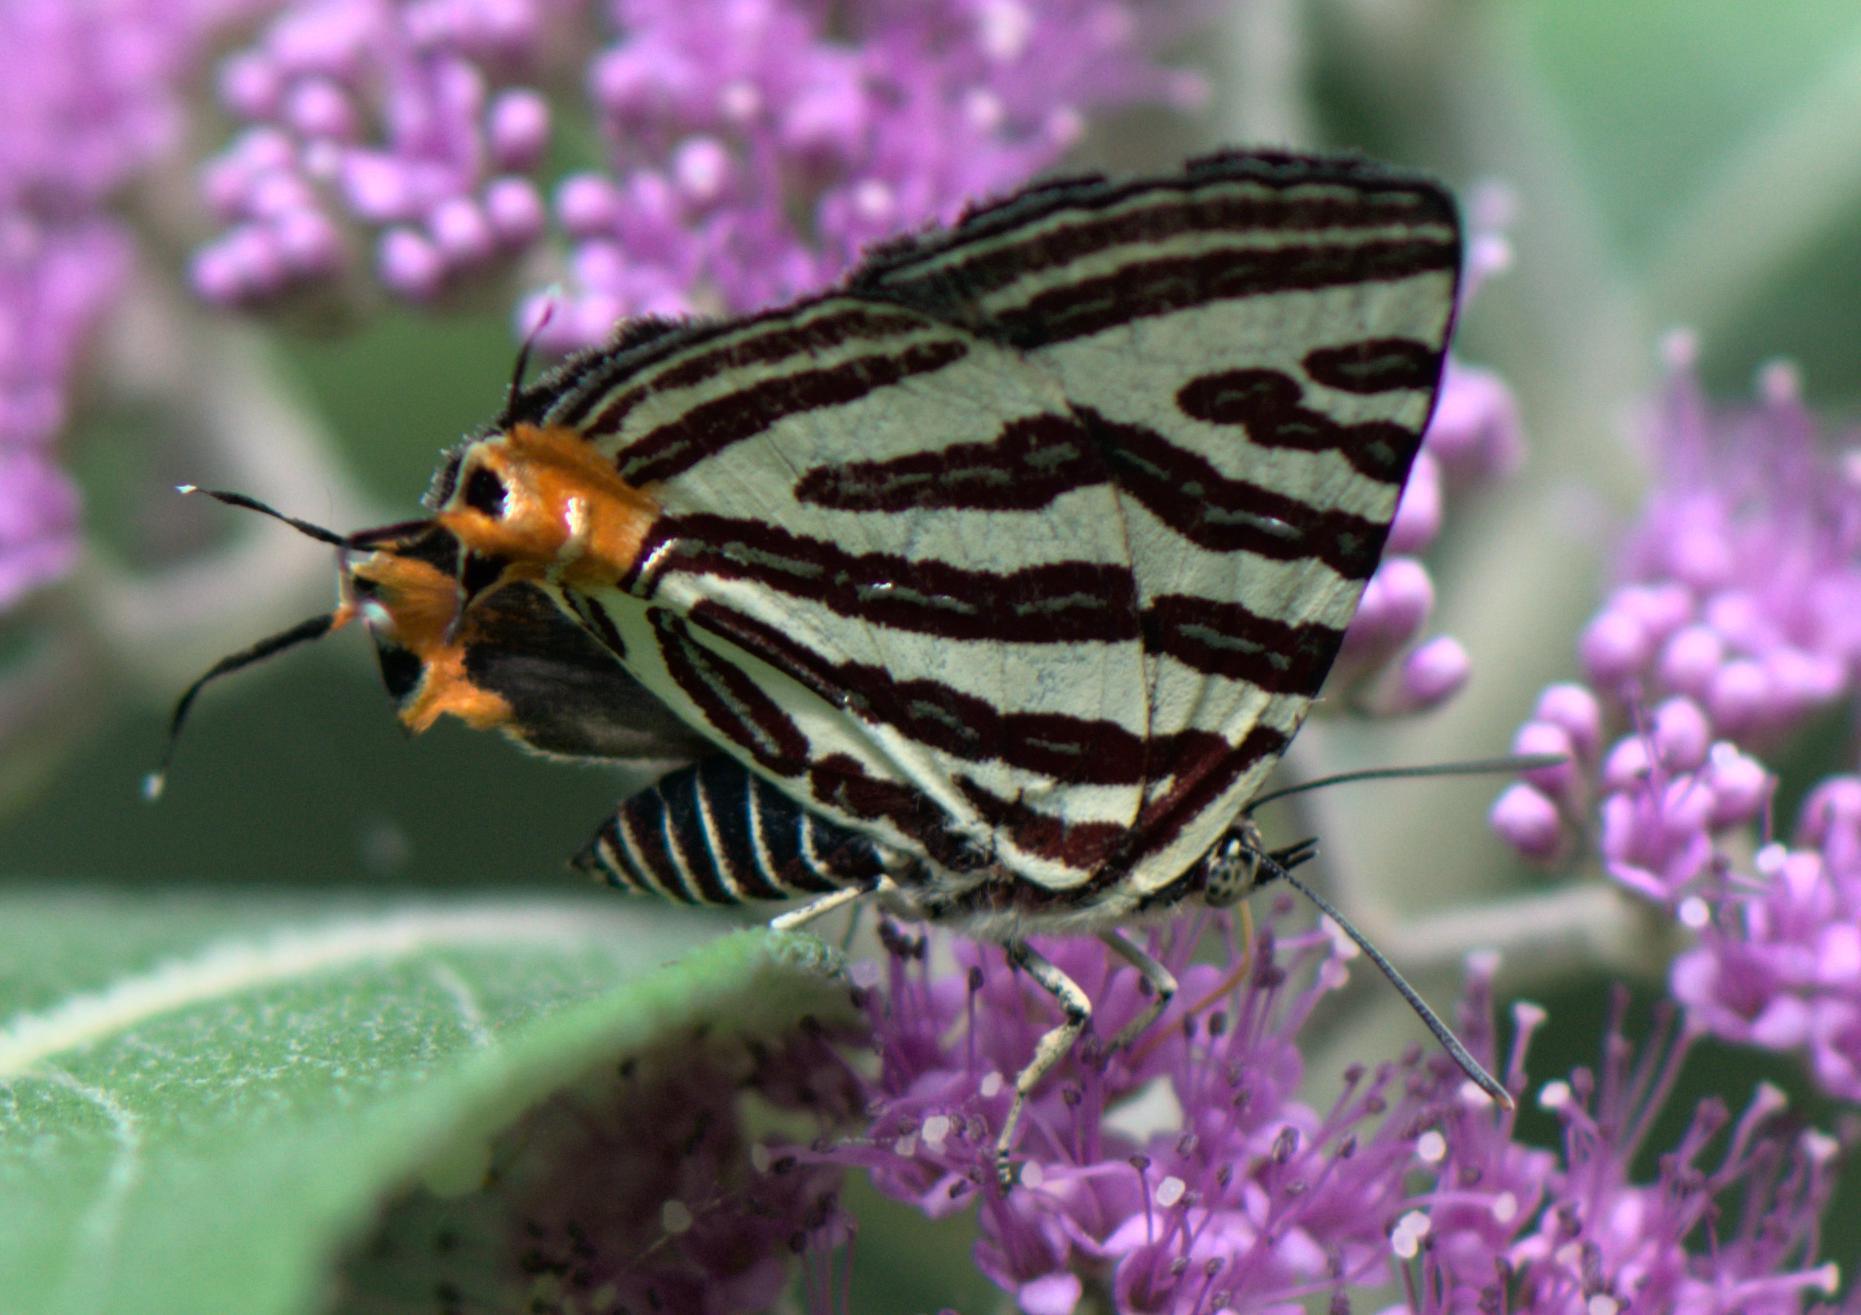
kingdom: Animalia
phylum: Arthropoda
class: Insecta
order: Lepidoptera
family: Lycaenidae
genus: Cigaritis
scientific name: Cigaritis lohita
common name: Long-banded silverline
